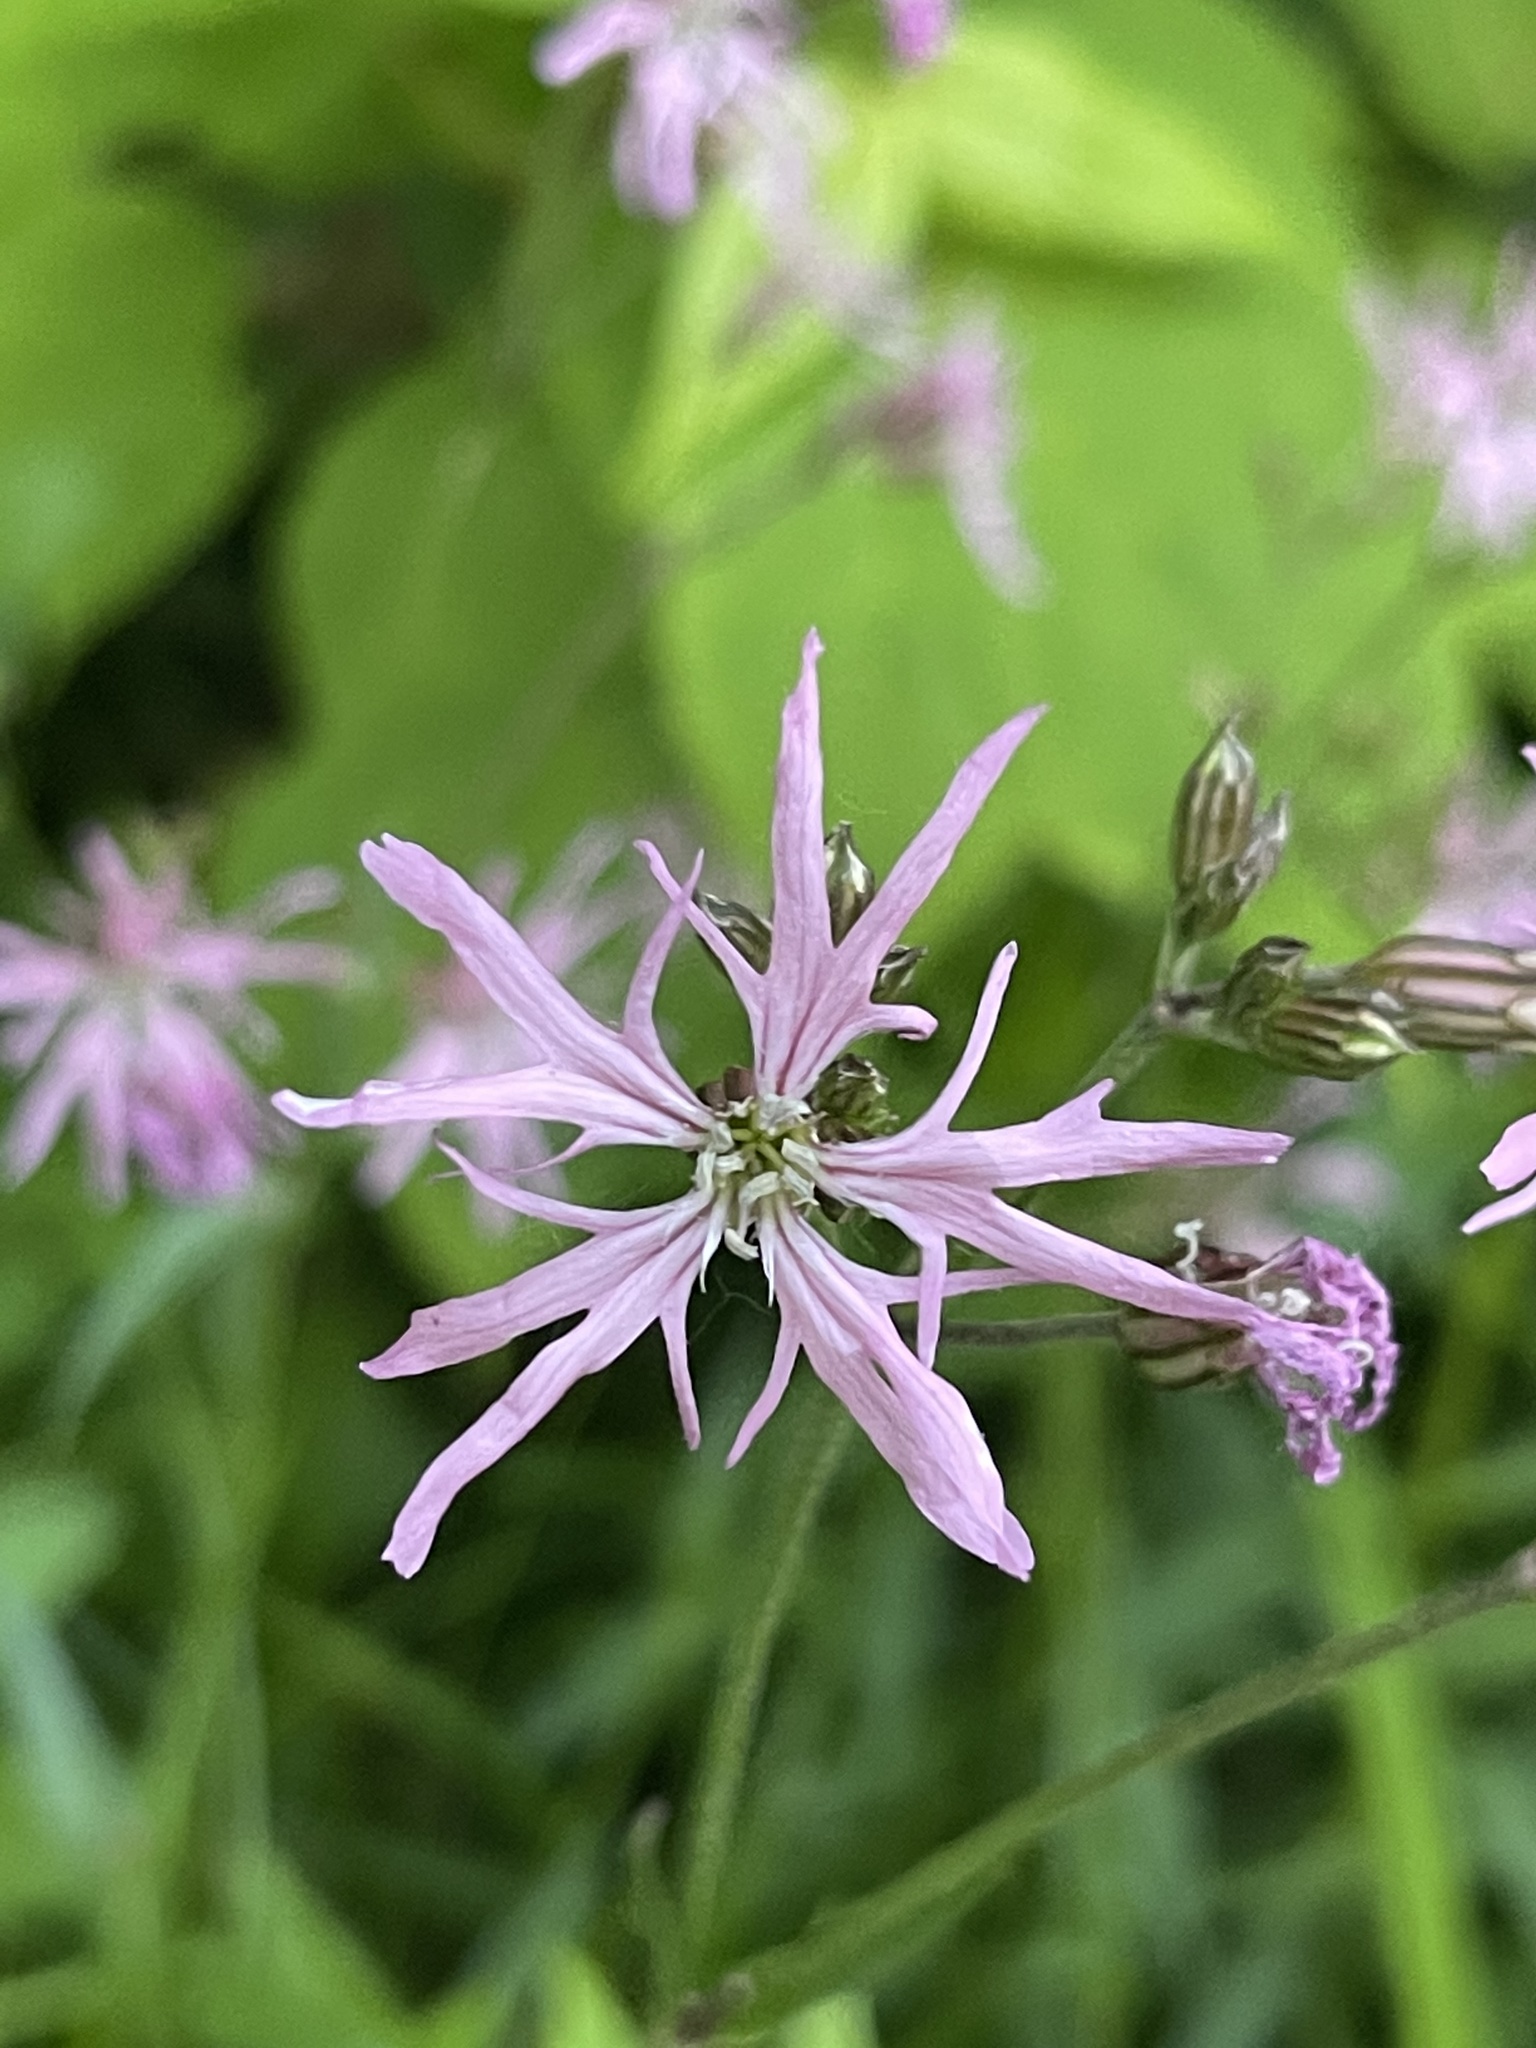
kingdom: Plantae
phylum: Tracheophyta
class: Magnoliopsida
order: Caryophyllales
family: Caryophyllaceae
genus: Silene
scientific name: Silene flos-cuculi
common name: Ragged-robin
